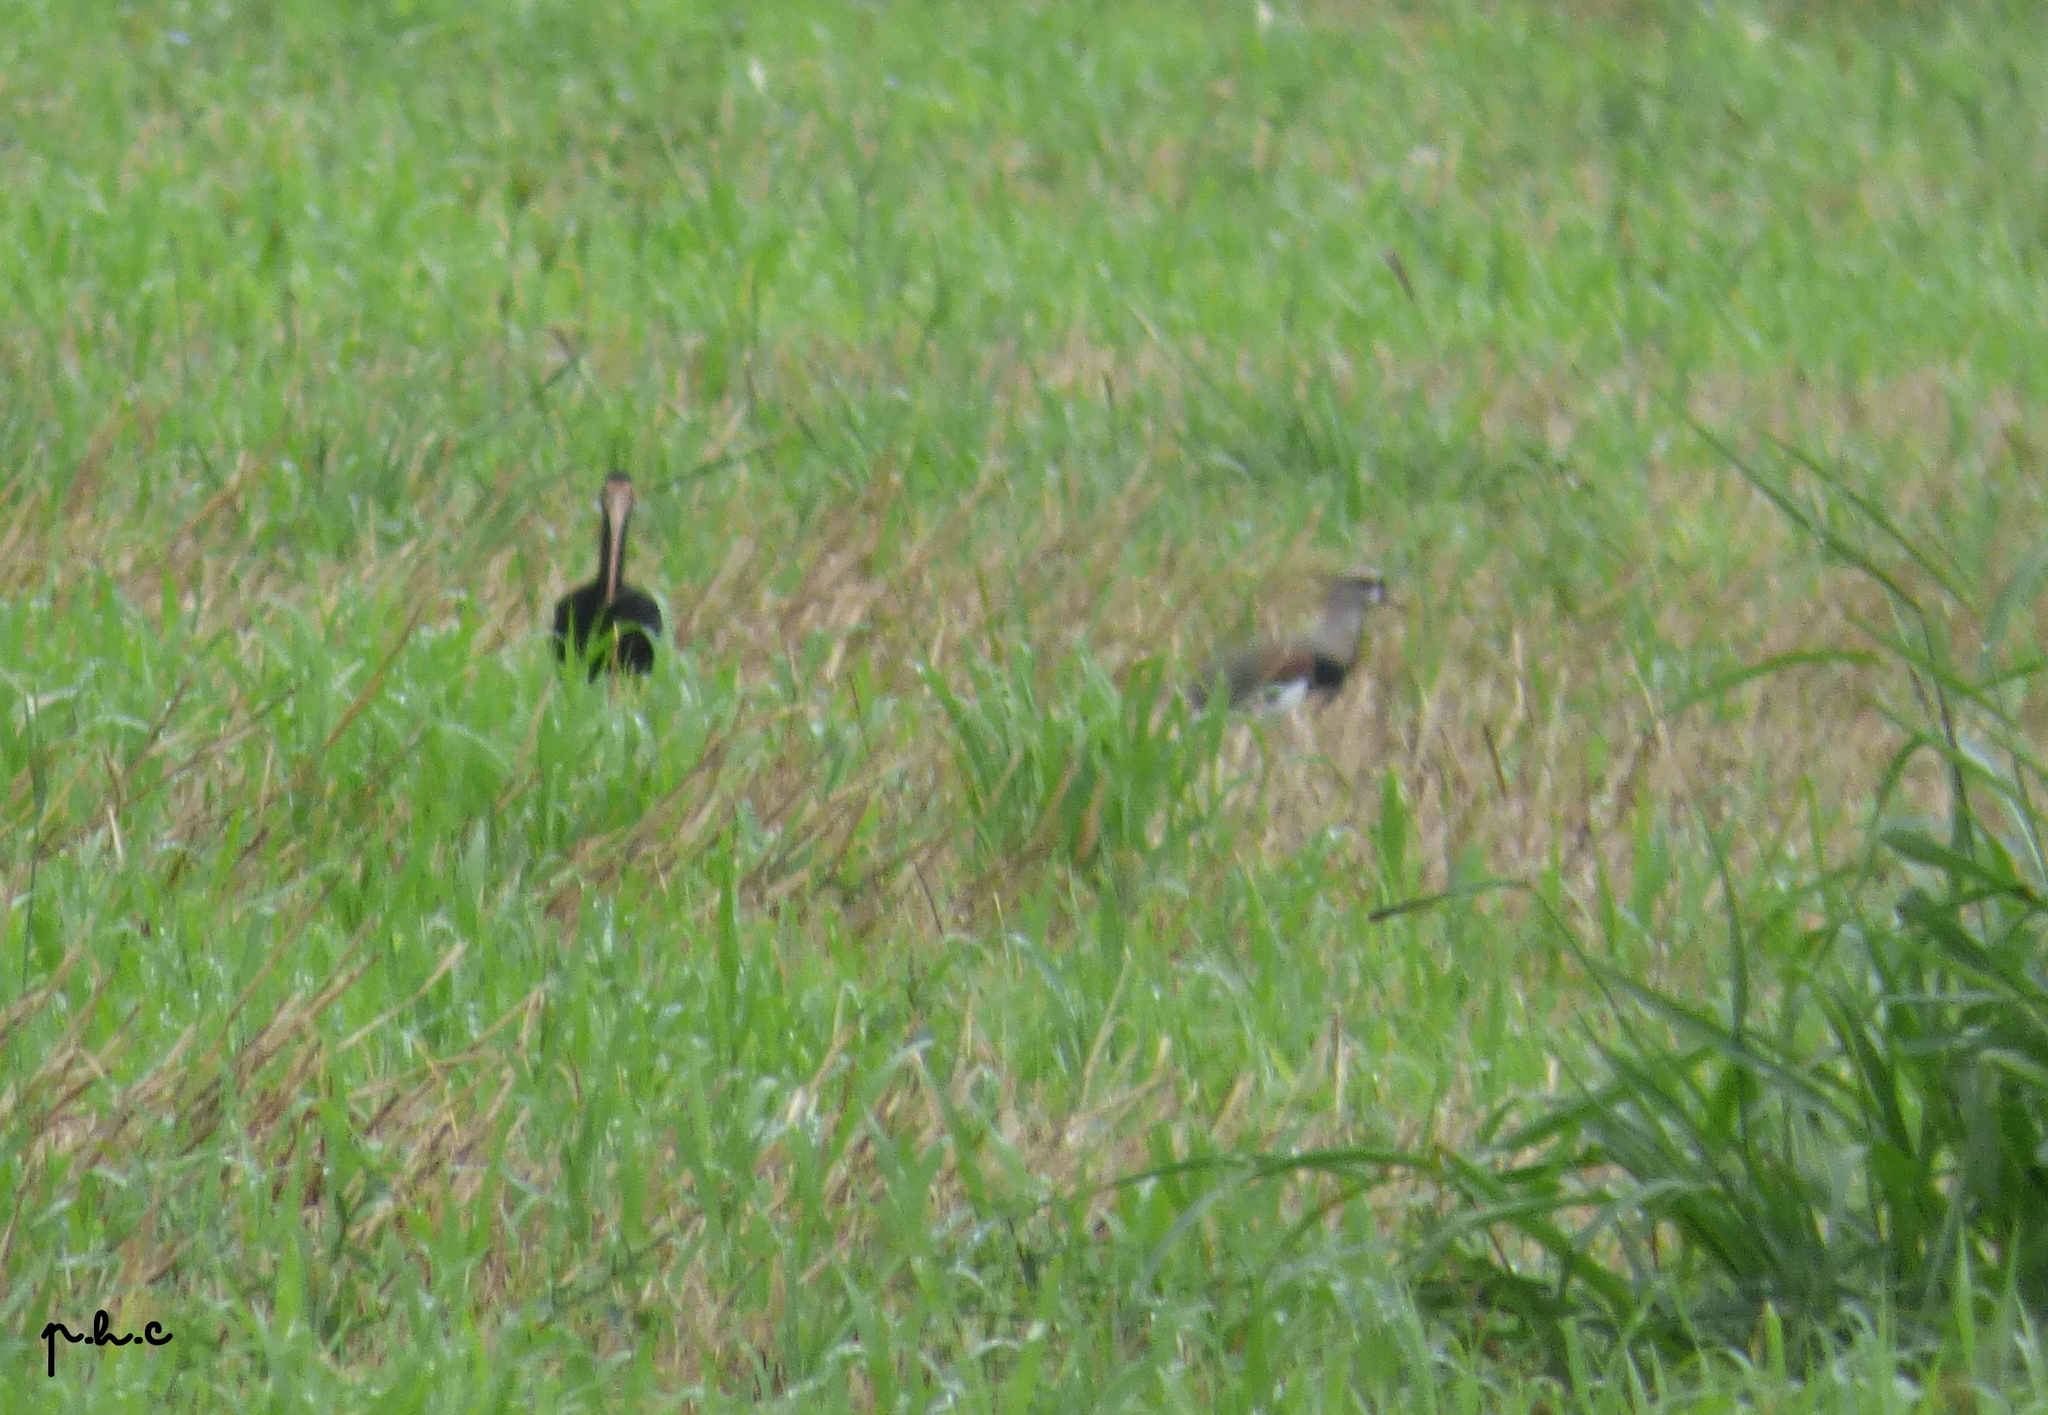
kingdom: Animalia
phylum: Chordata
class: Aves
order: Pelecaniformes
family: Threskiornithidae
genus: Phimosus
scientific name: Phimosus infuscatus
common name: Bare-faced ibis
